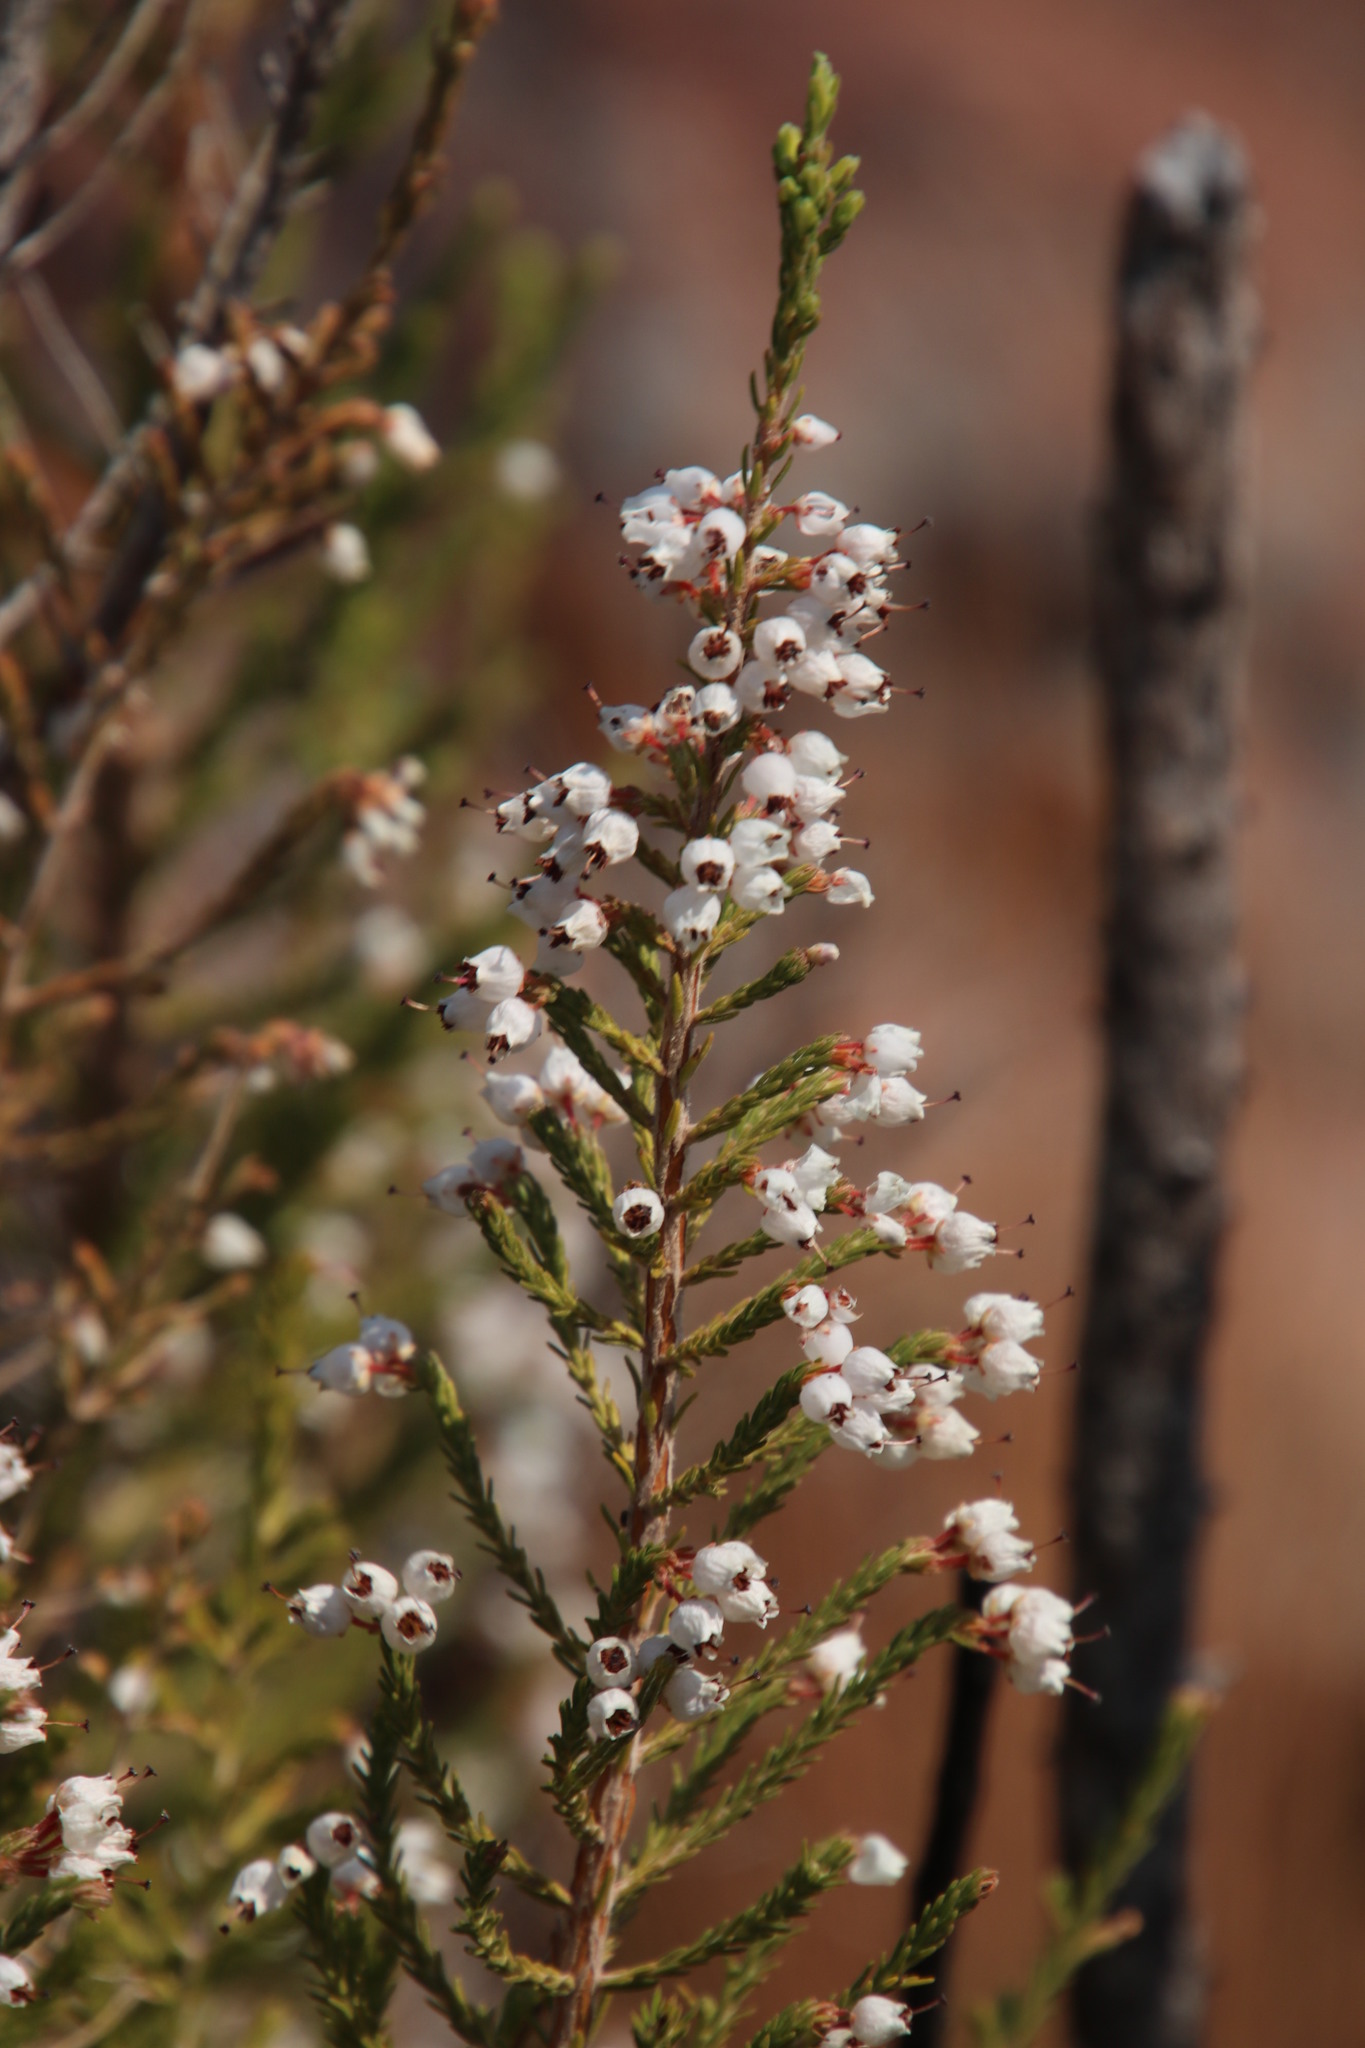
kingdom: Plantae
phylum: Tracheophyta
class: Magnoliopsida
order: Ericales
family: Ericaceae
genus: Erica
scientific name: Erica drakensbergensis
